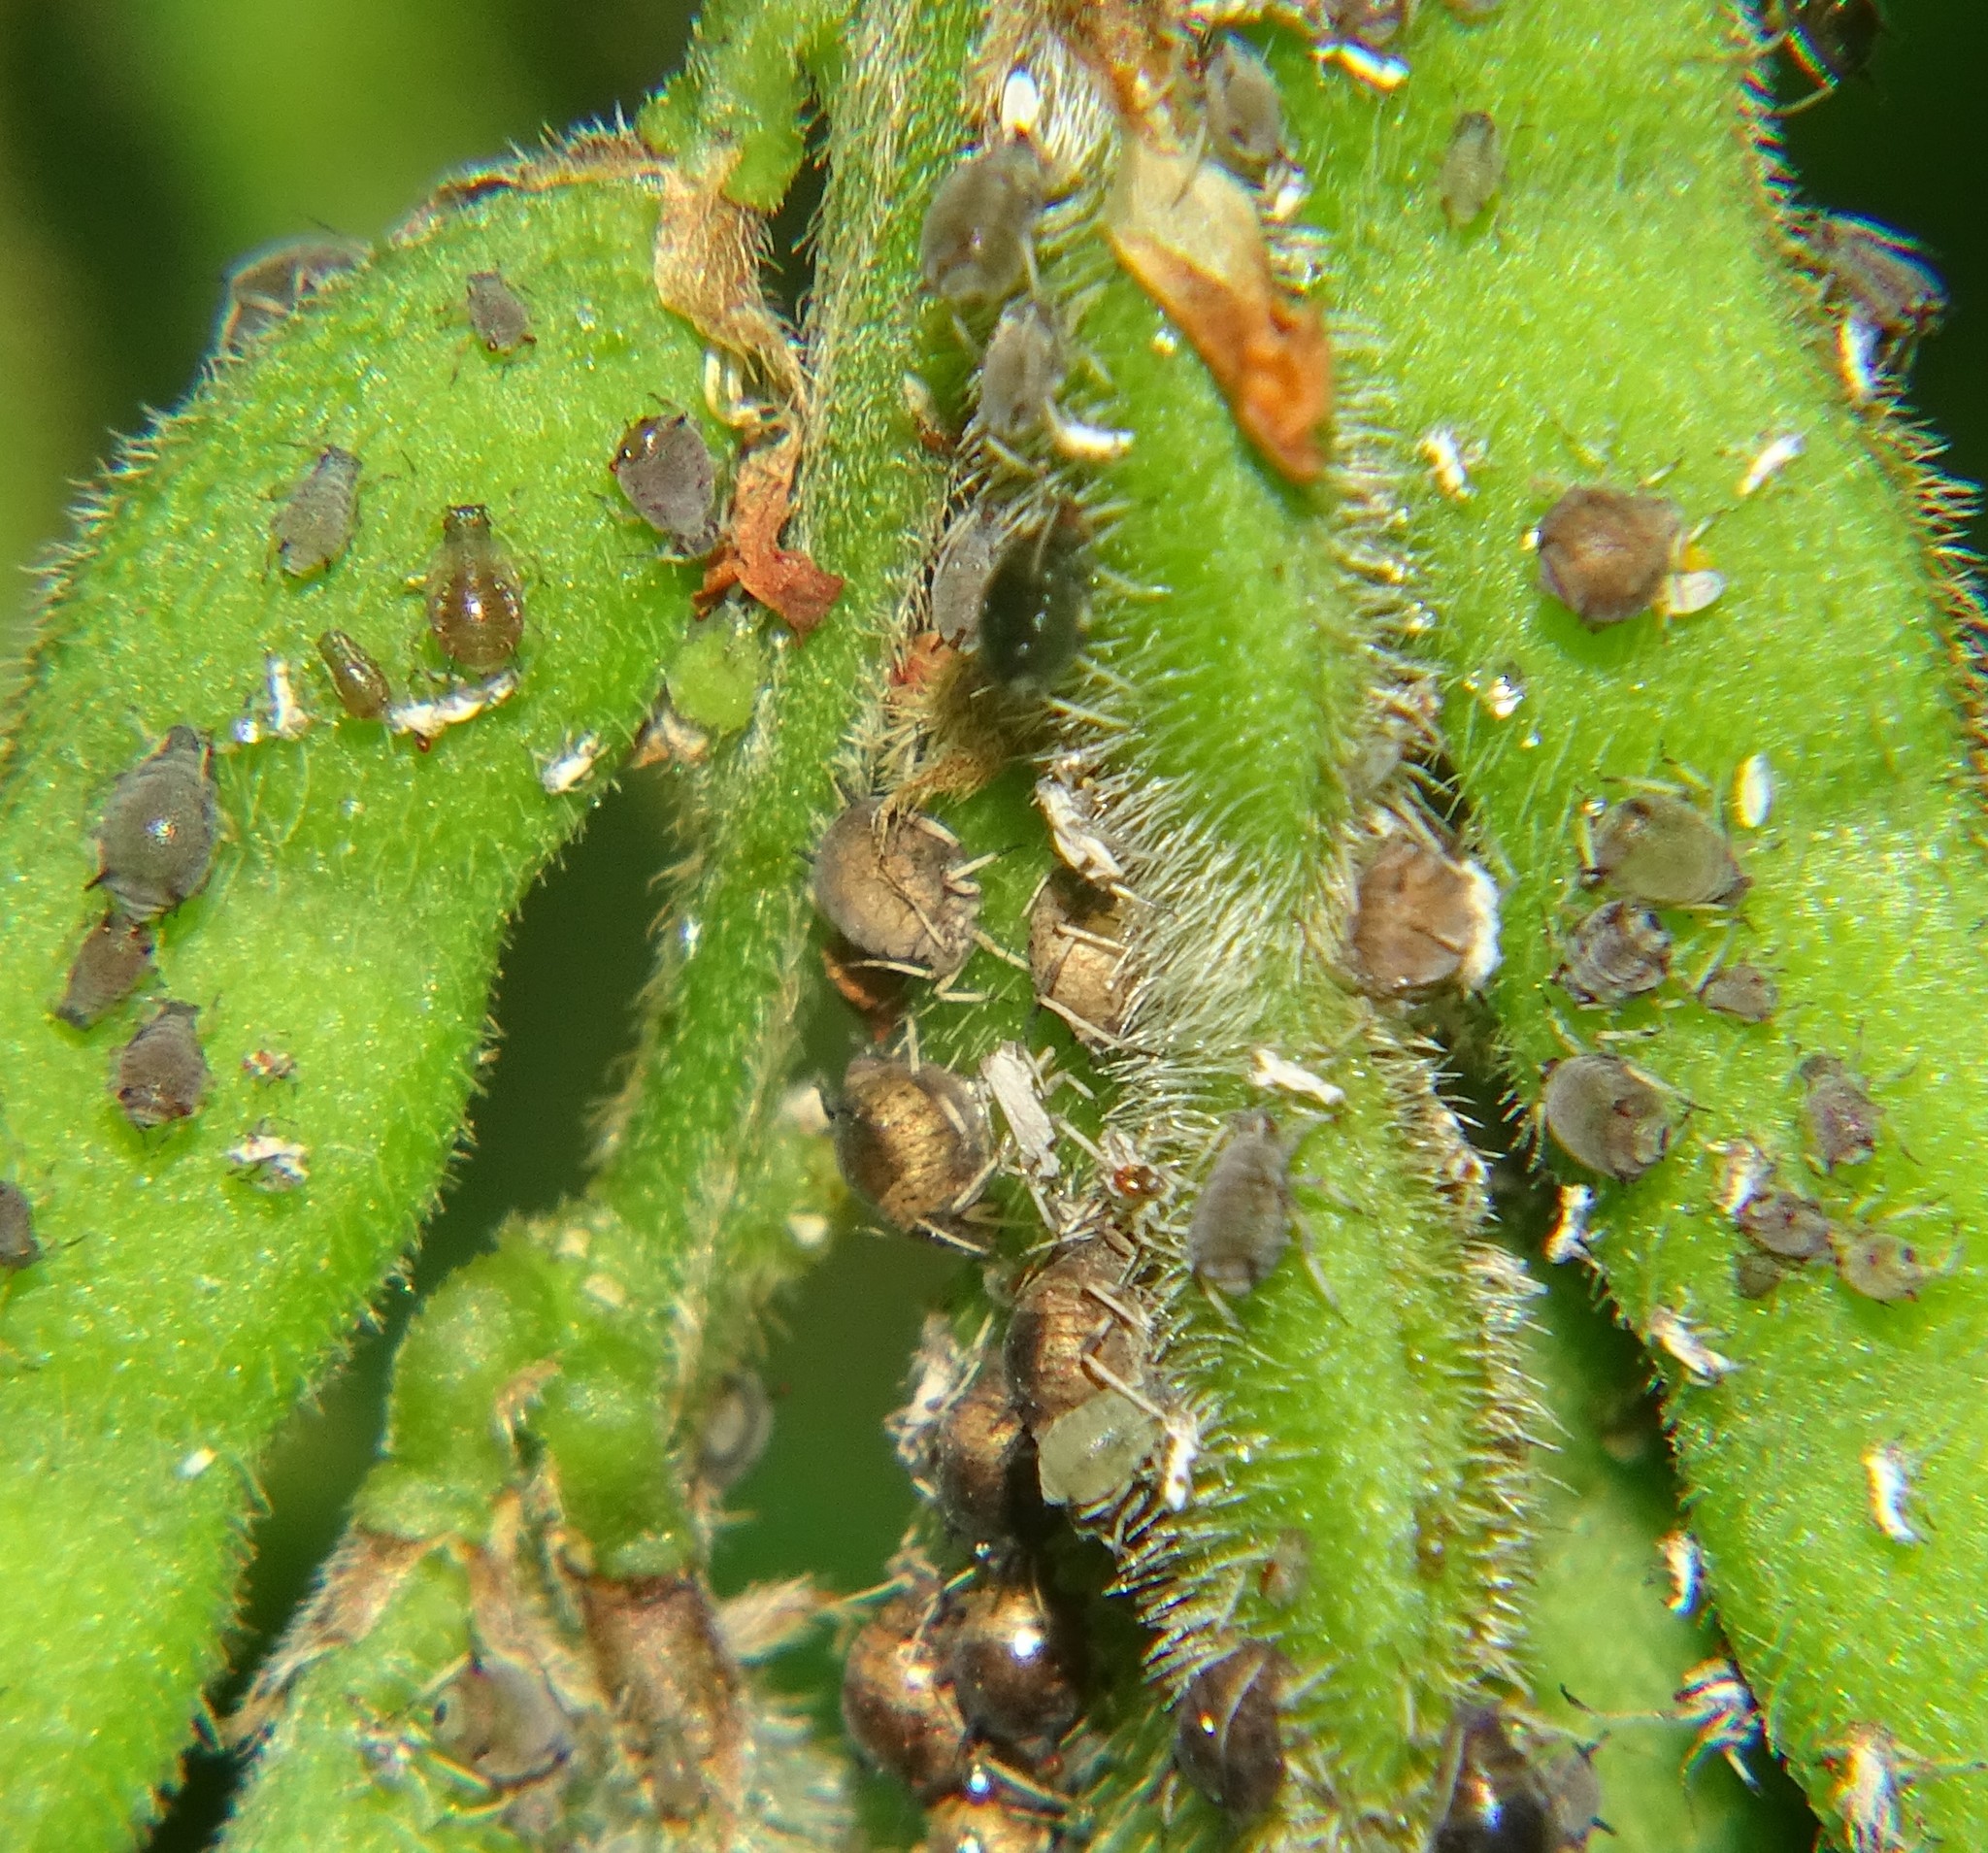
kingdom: Animalia
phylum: Arthropoda
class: Insecta
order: Hemiptera
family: Aphididae
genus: Aphis
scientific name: Aphis craccivora
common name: Cowpea aphid
